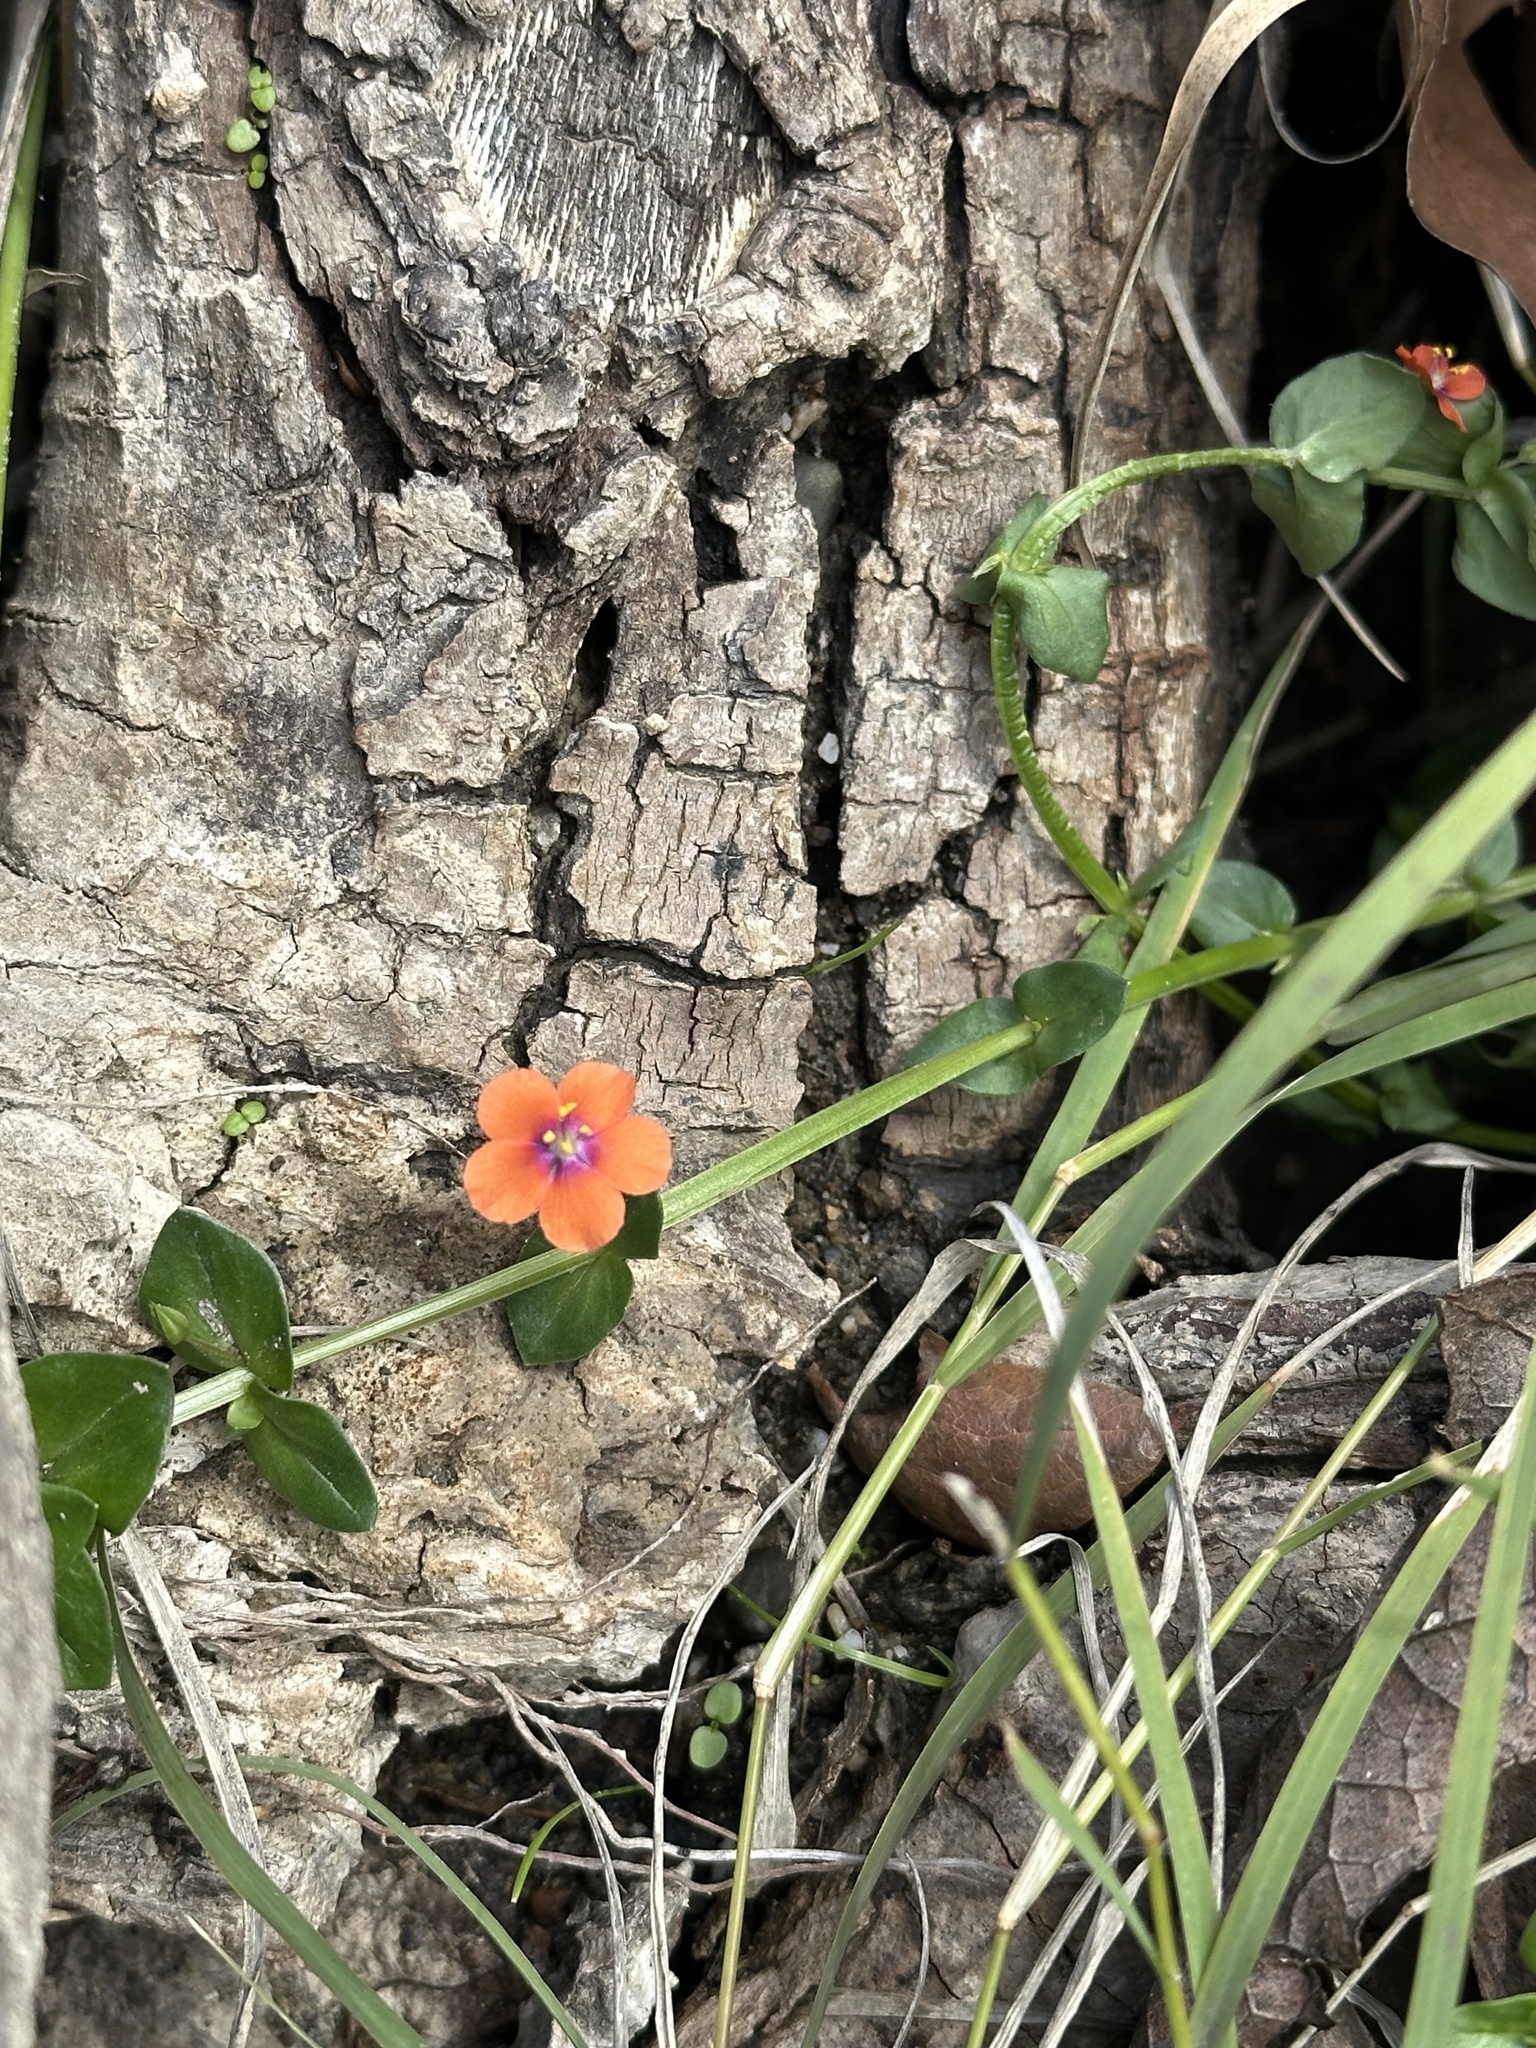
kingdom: Plantae
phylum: Tracheophyta
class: Magnoliopsida
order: Ericales
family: Primulaceae
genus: Lysimachia
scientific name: Lysimachia arvensis
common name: Scarlet pimpernel
